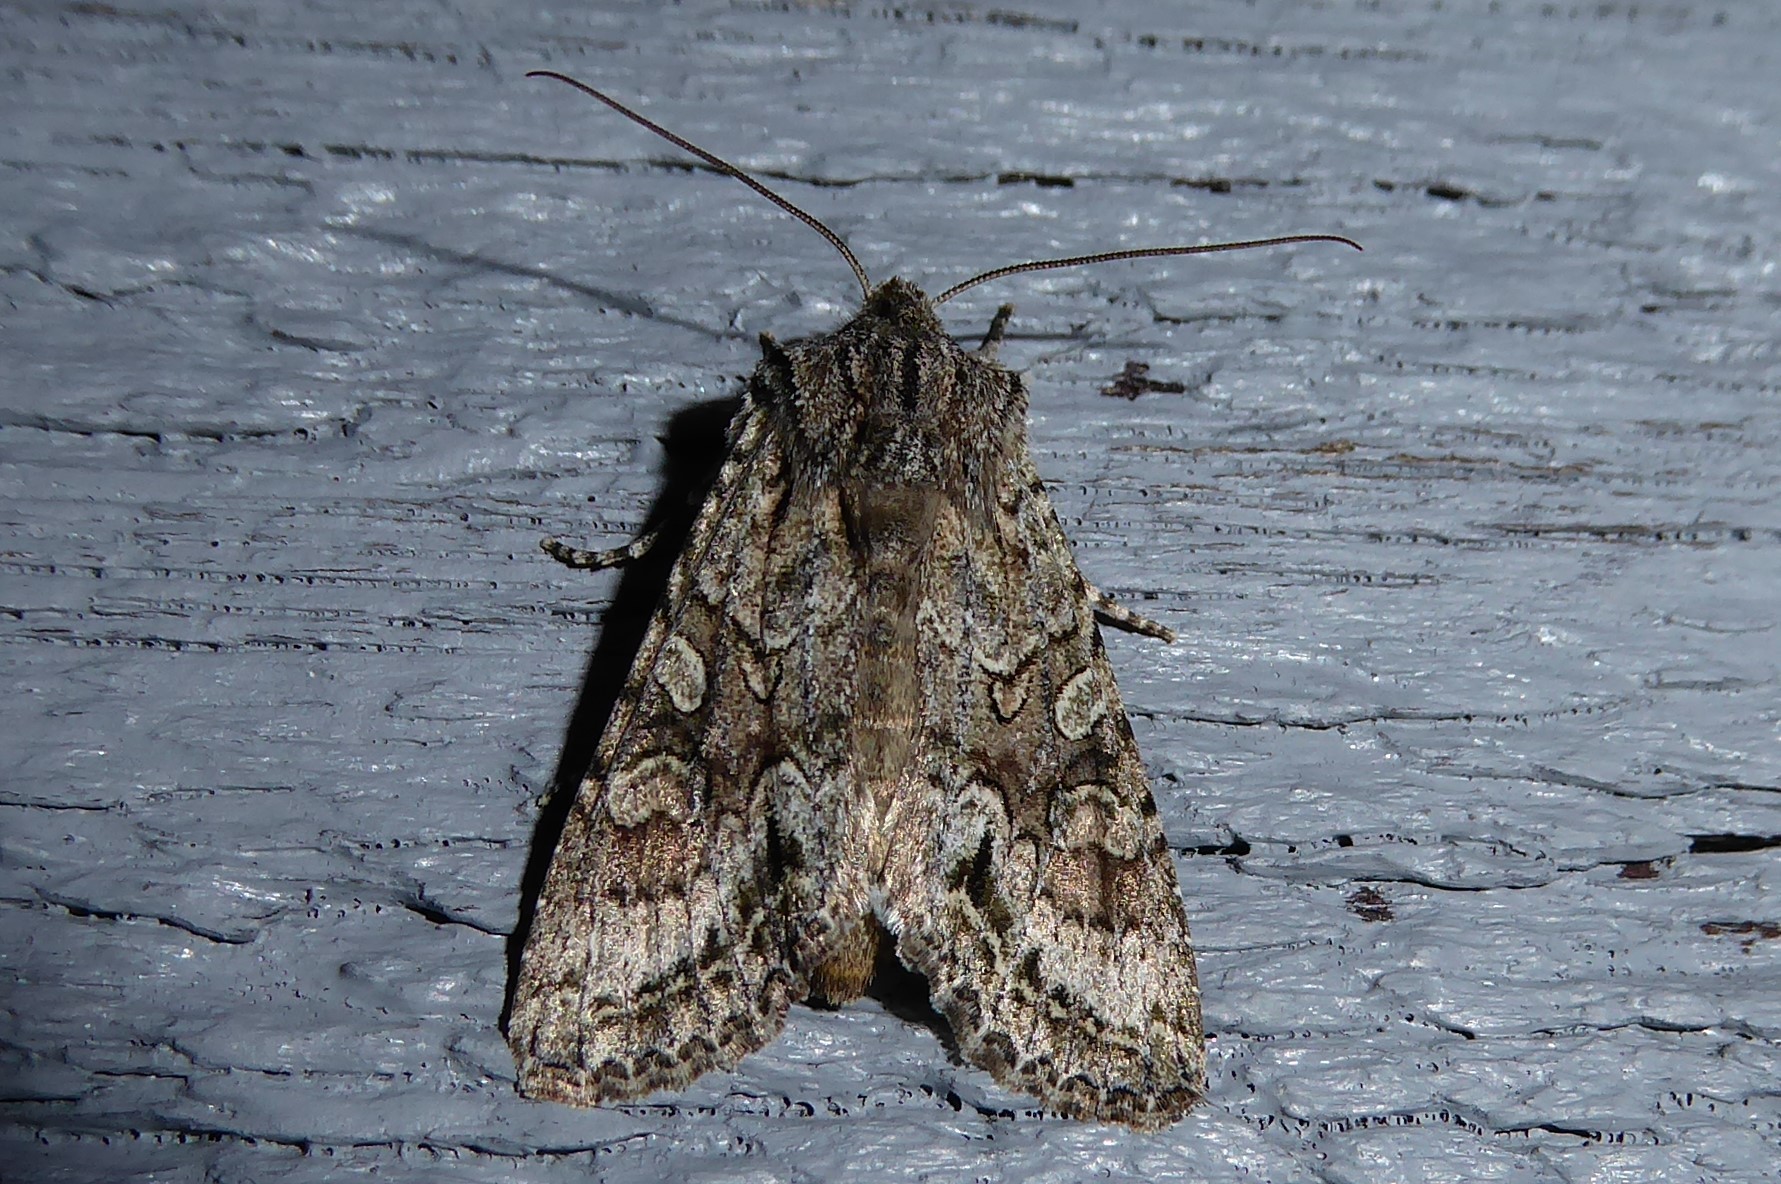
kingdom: Animalia
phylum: Arthropoda
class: Insecta
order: Lepidoptera
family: Noctuidae
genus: Ichneutica
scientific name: Ichneutica mutans
